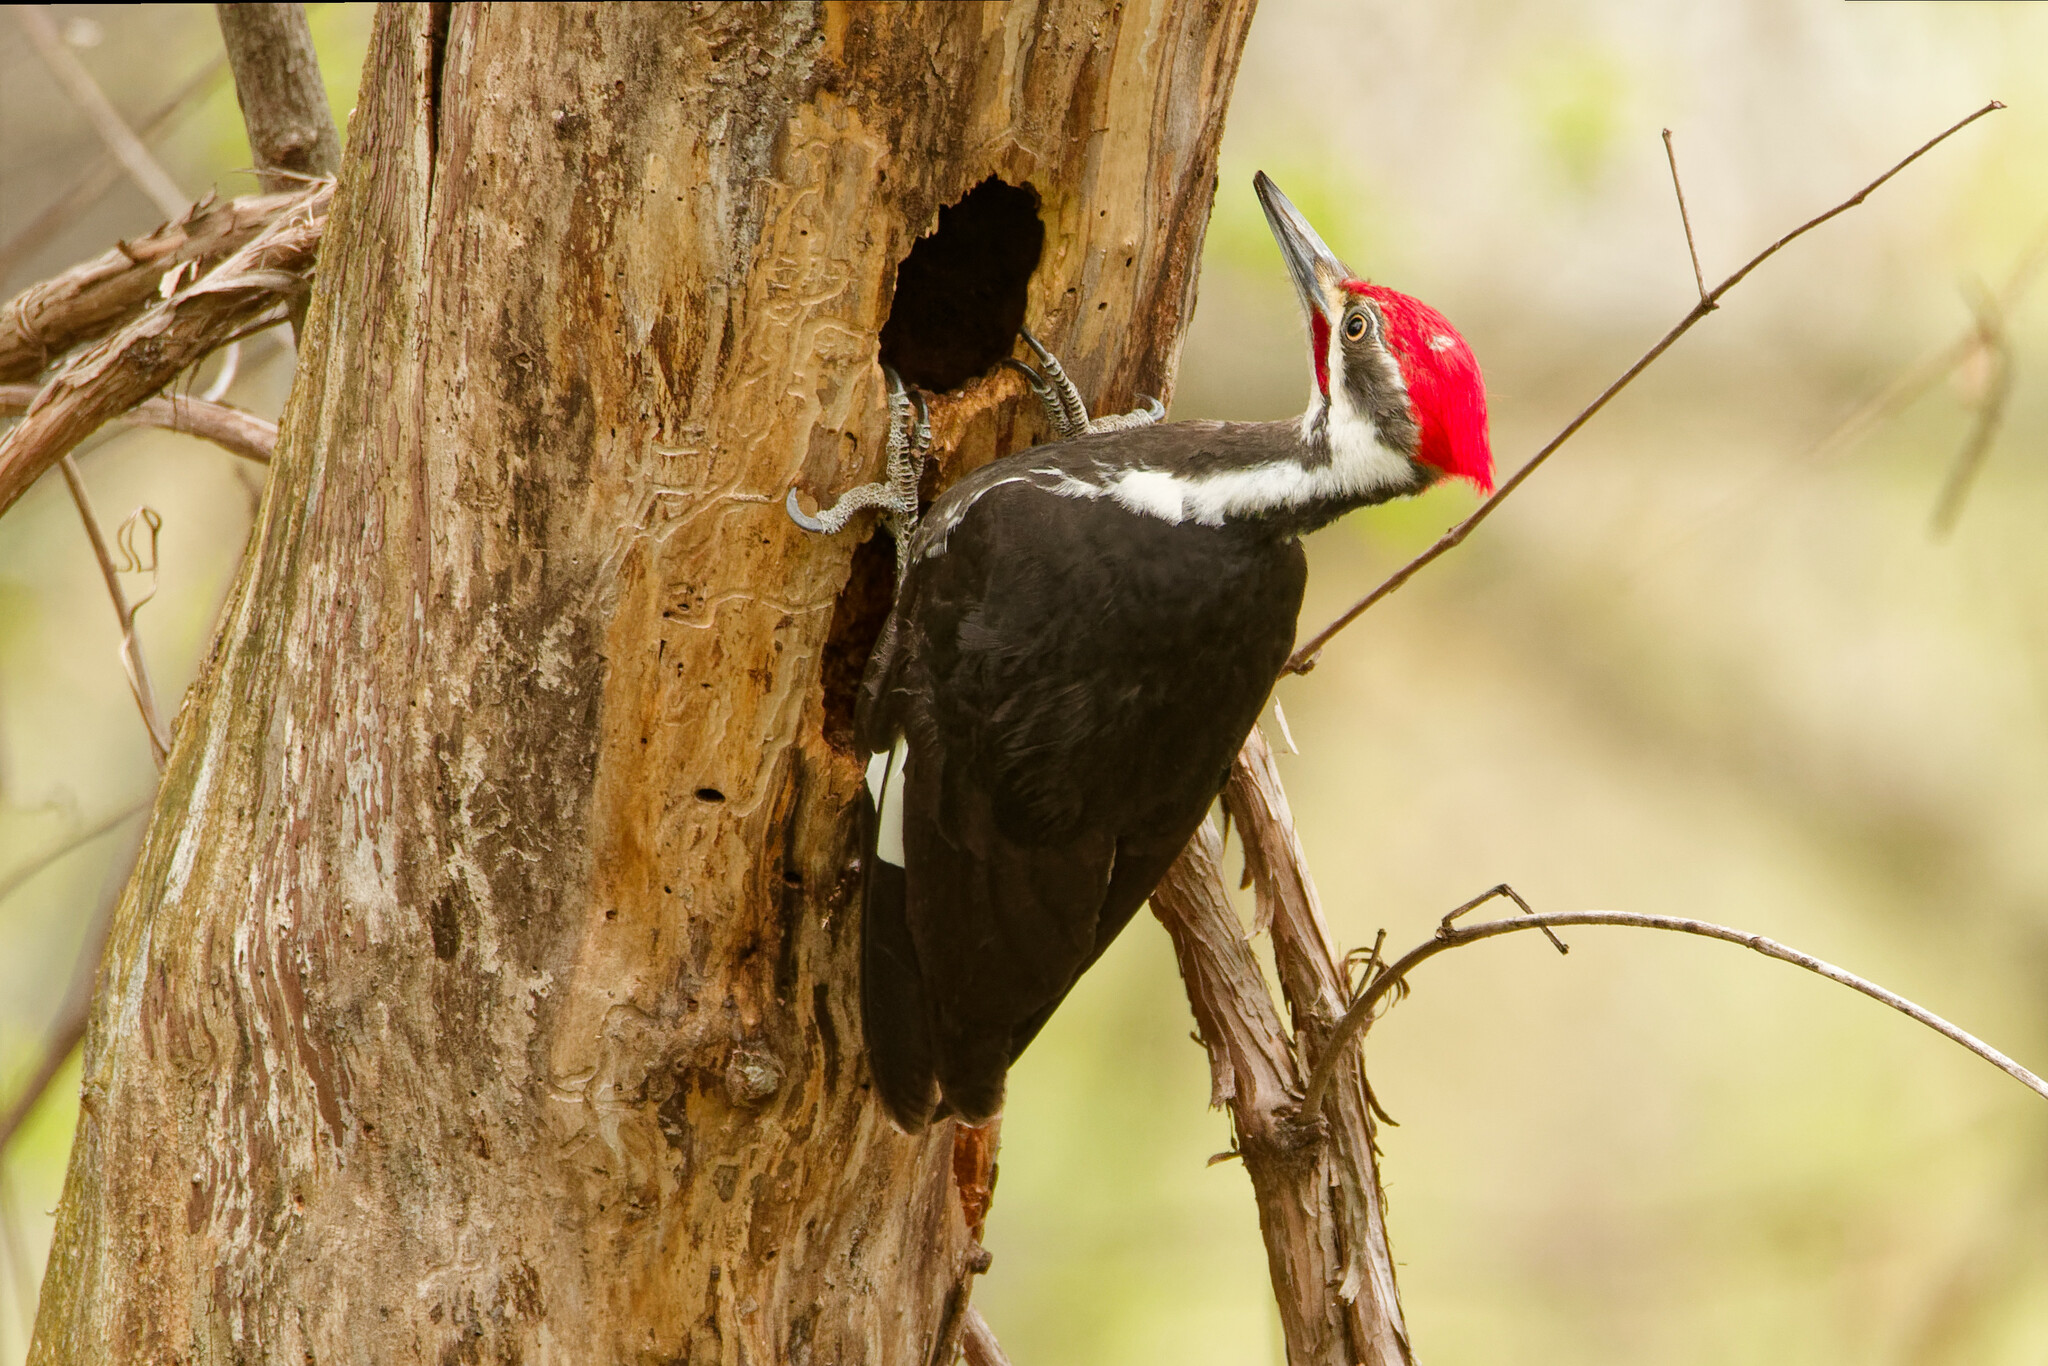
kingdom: Animalia
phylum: Chordata
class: Aves
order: Piciformes
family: Picidae
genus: Dryocopus
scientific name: Dryocopus pileatus
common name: Pileated woodpecker
